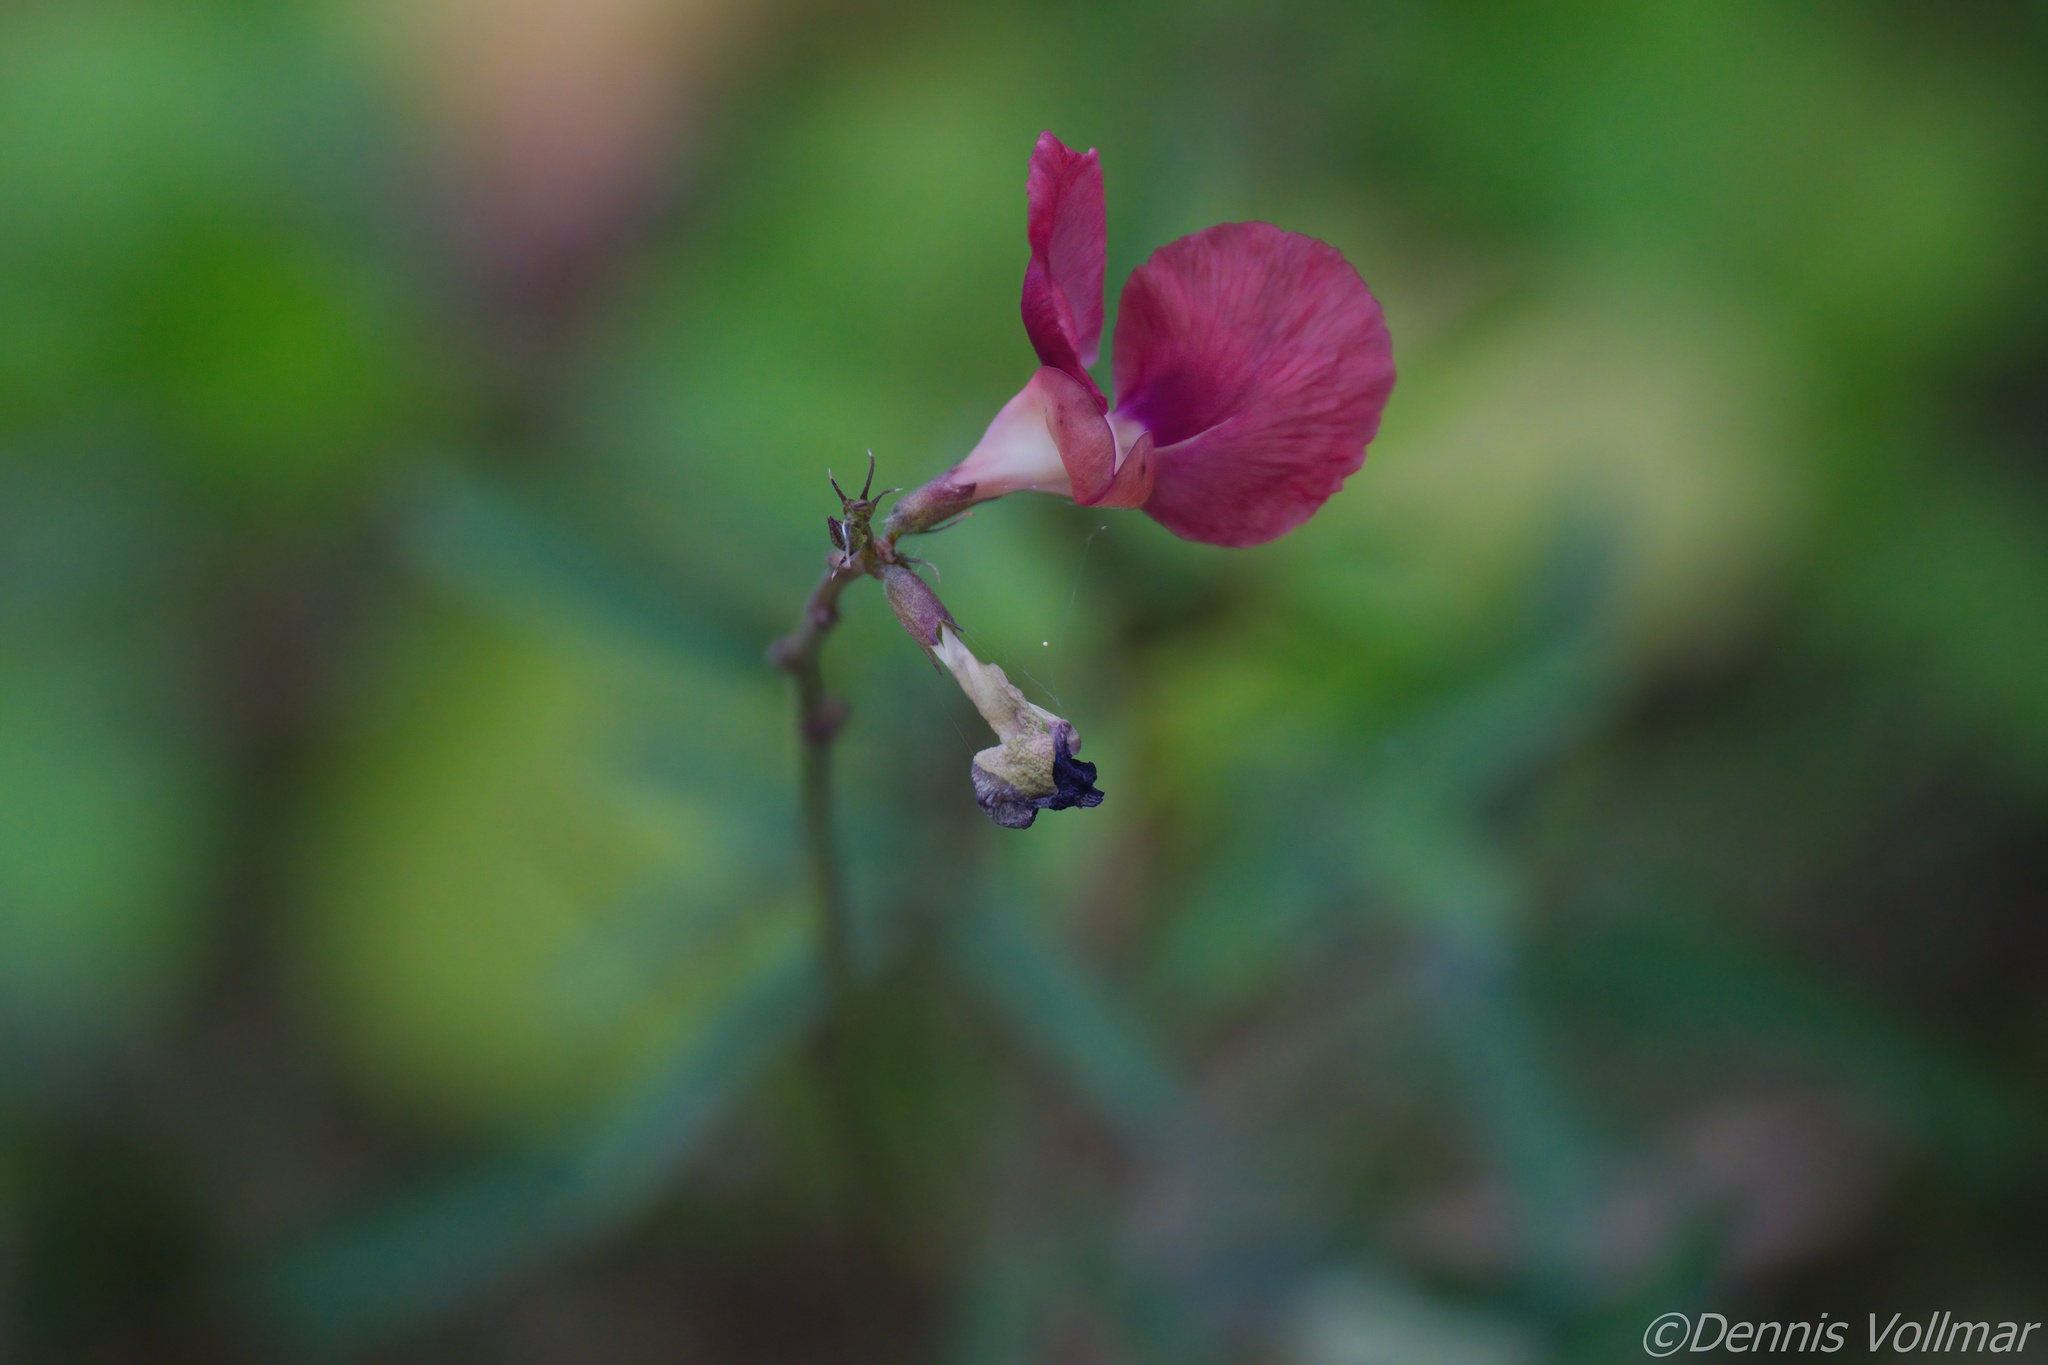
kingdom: Plantae
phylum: Tracheophyta
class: Magnoliopsida
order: Fabales
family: Fabaceae
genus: Macroptilium
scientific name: Macroptilium lathyroides
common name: Wild bushbean
